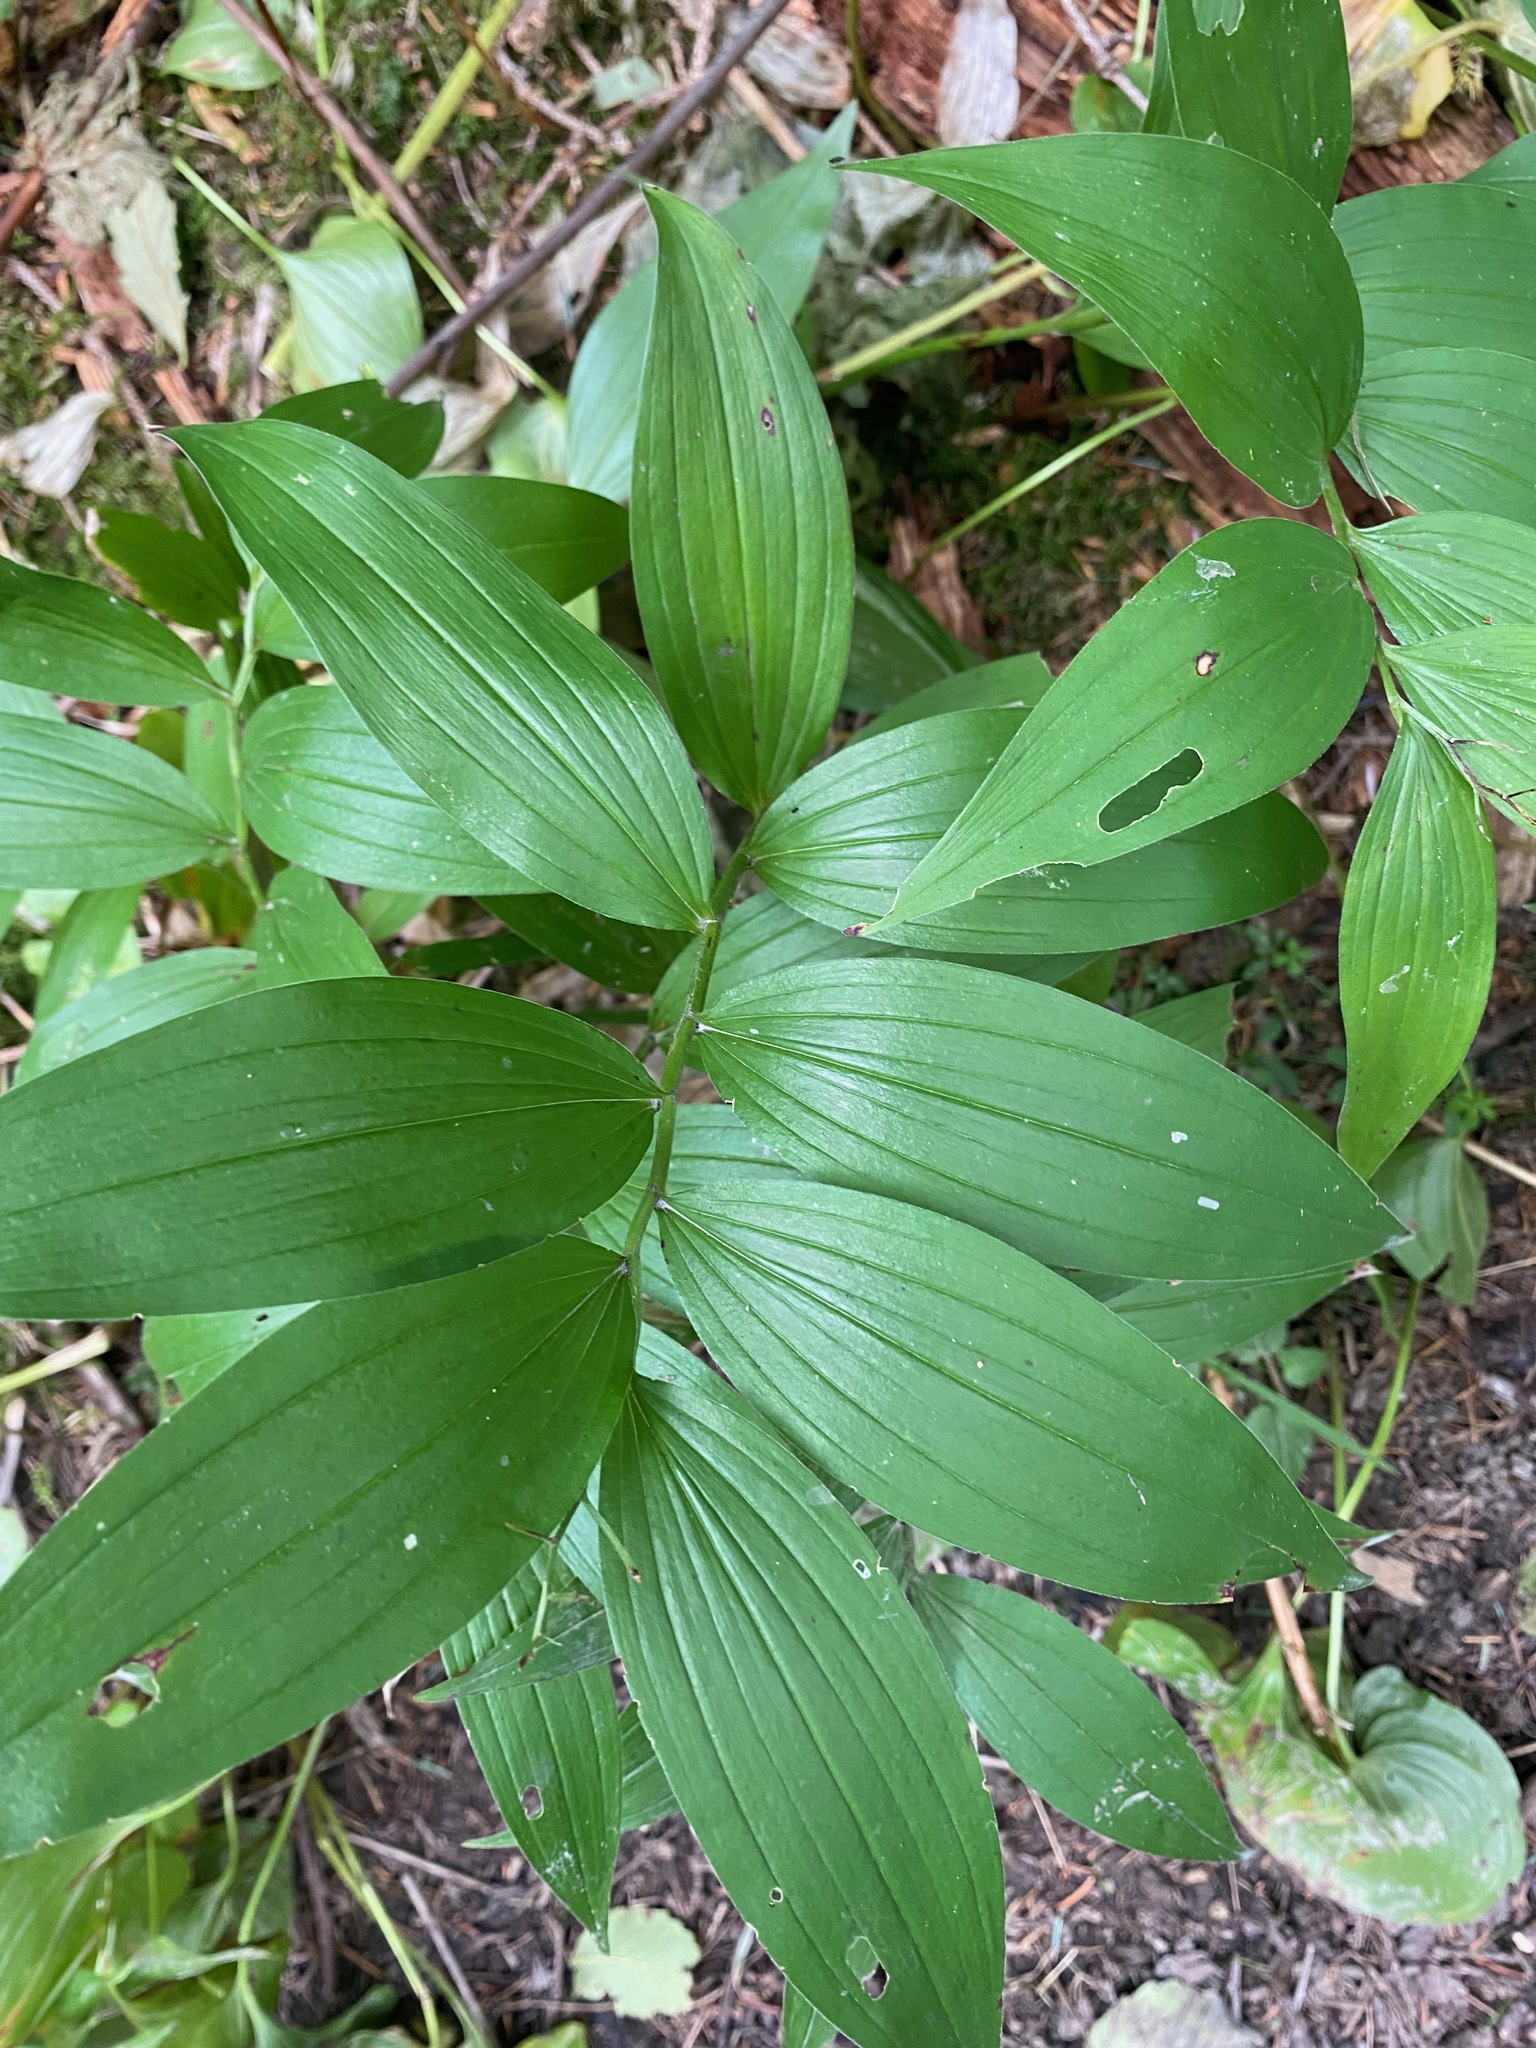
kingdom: Plantae
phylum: Tracheophyta
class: Liliopsida
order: Asparagales
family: Asparagaceae
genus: Maianthemum
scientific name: Maianthemum stellatum
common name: Little false solomon's seal
